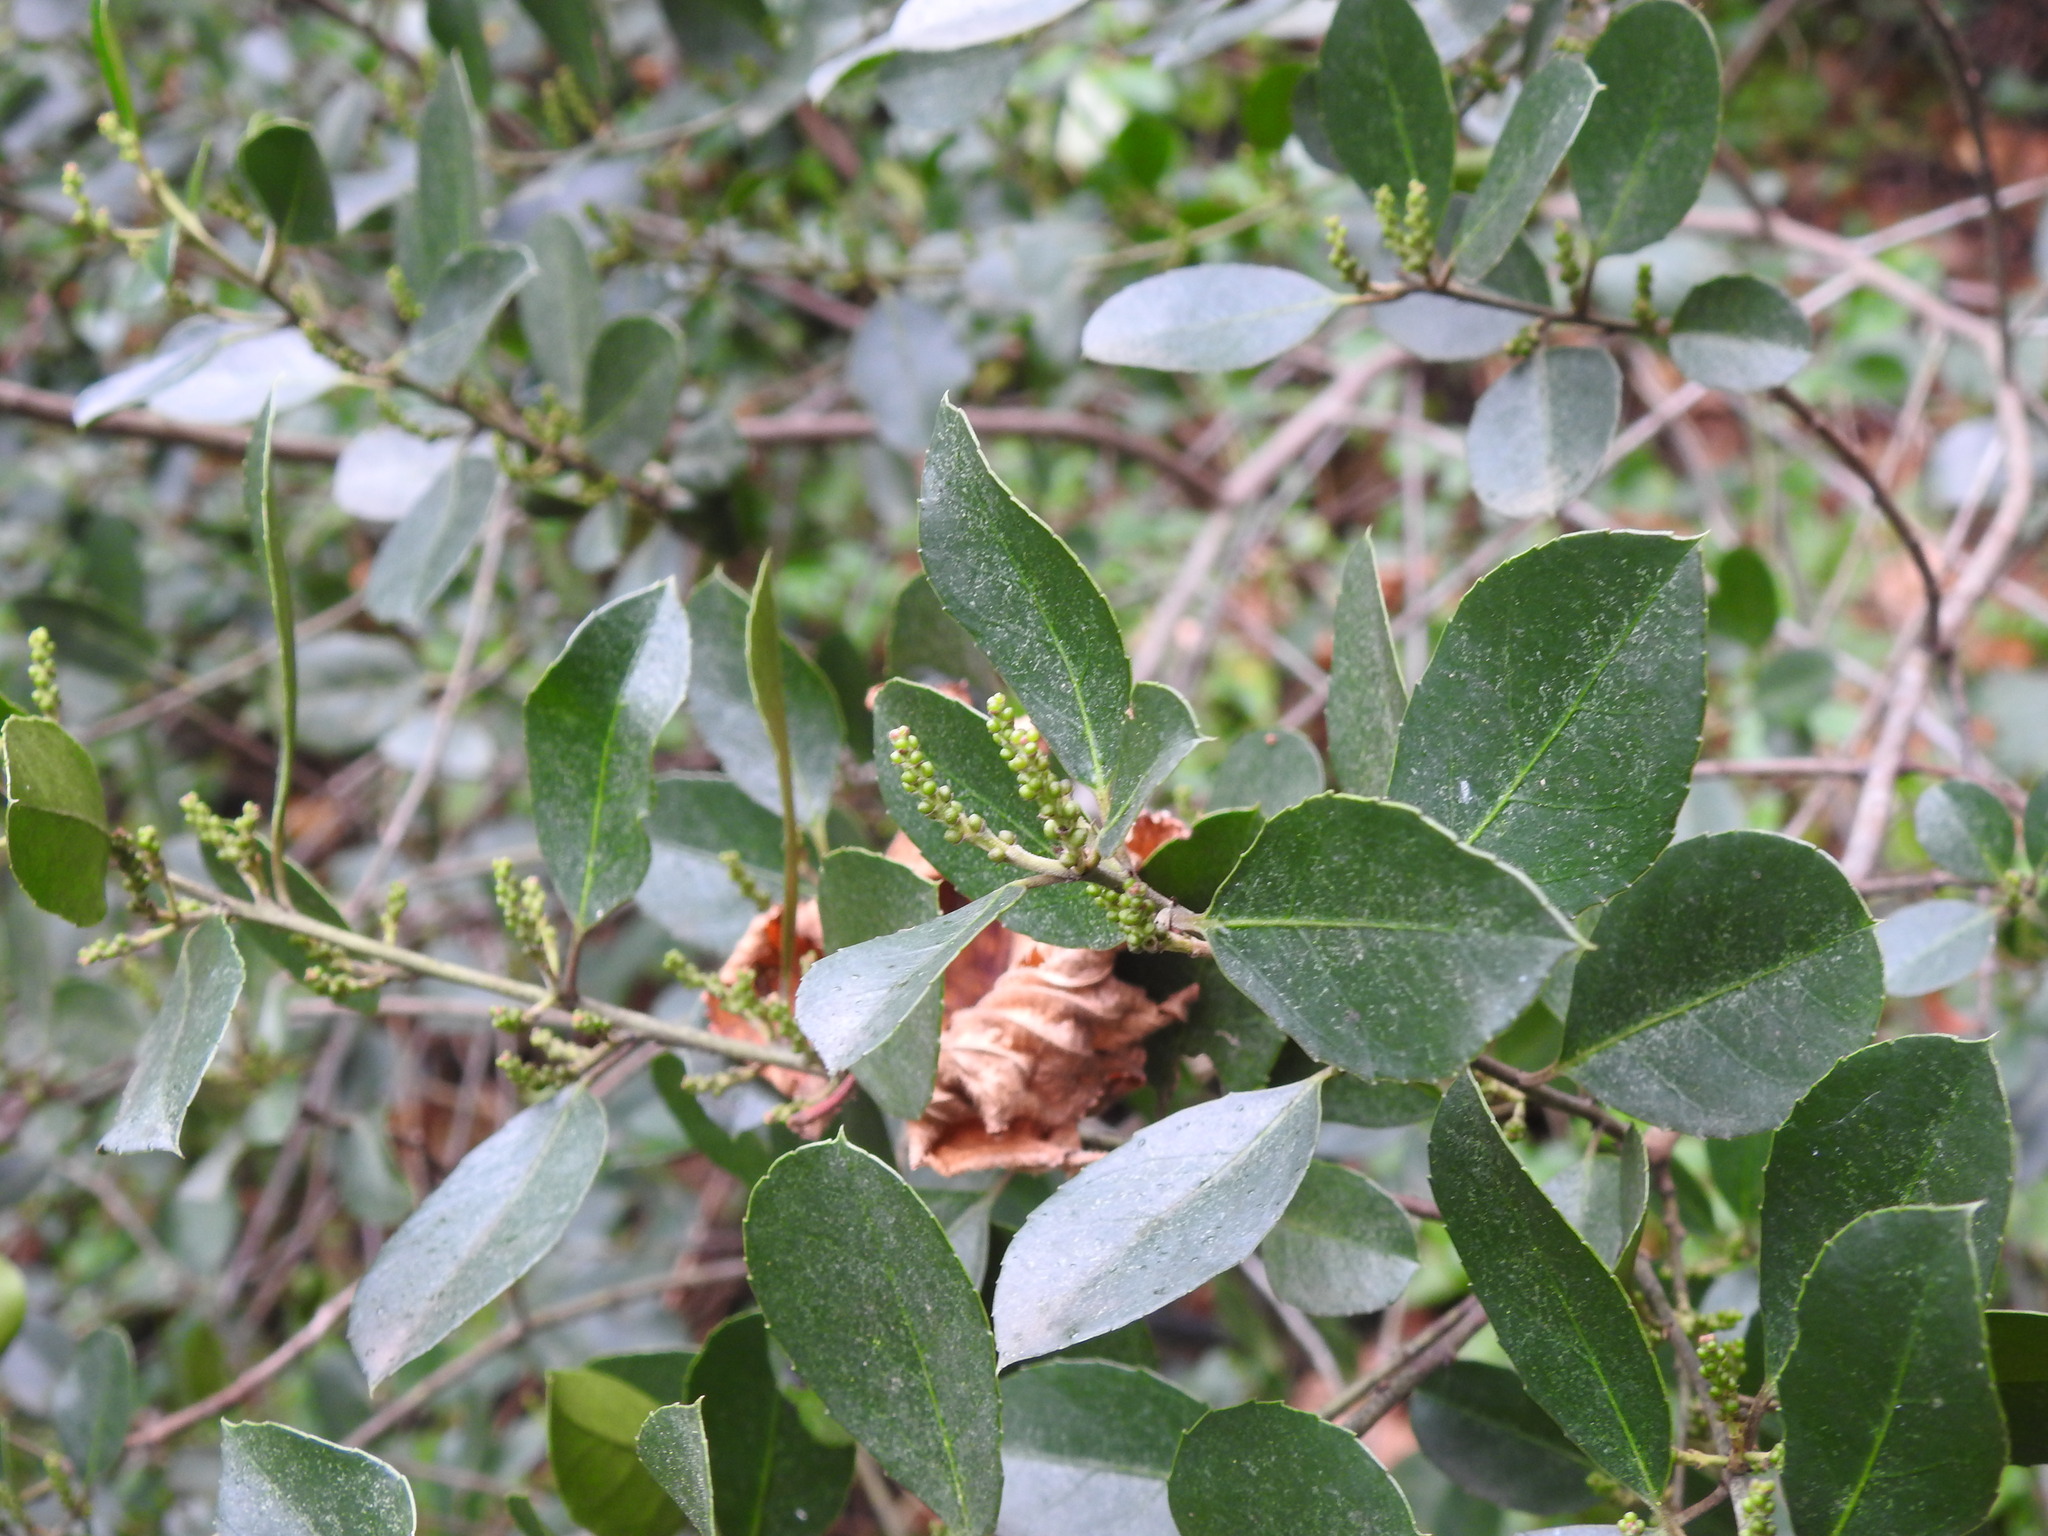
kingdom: Plantae
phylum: Tracheophyta
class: Magnoliopsida
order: Rosales
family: Rhamnaceae
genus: Rhamnus
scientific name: Rhamnus alaternus
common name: Mediterranean buckthorn
